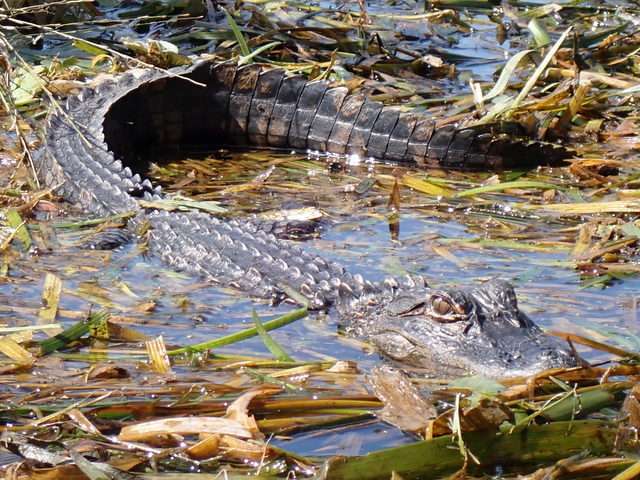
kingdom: Animalia
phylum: Chordata
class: Crocodylia
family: Alligatoridae
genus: Alligator
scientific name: Alligator mississippiensis
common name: American alligator
